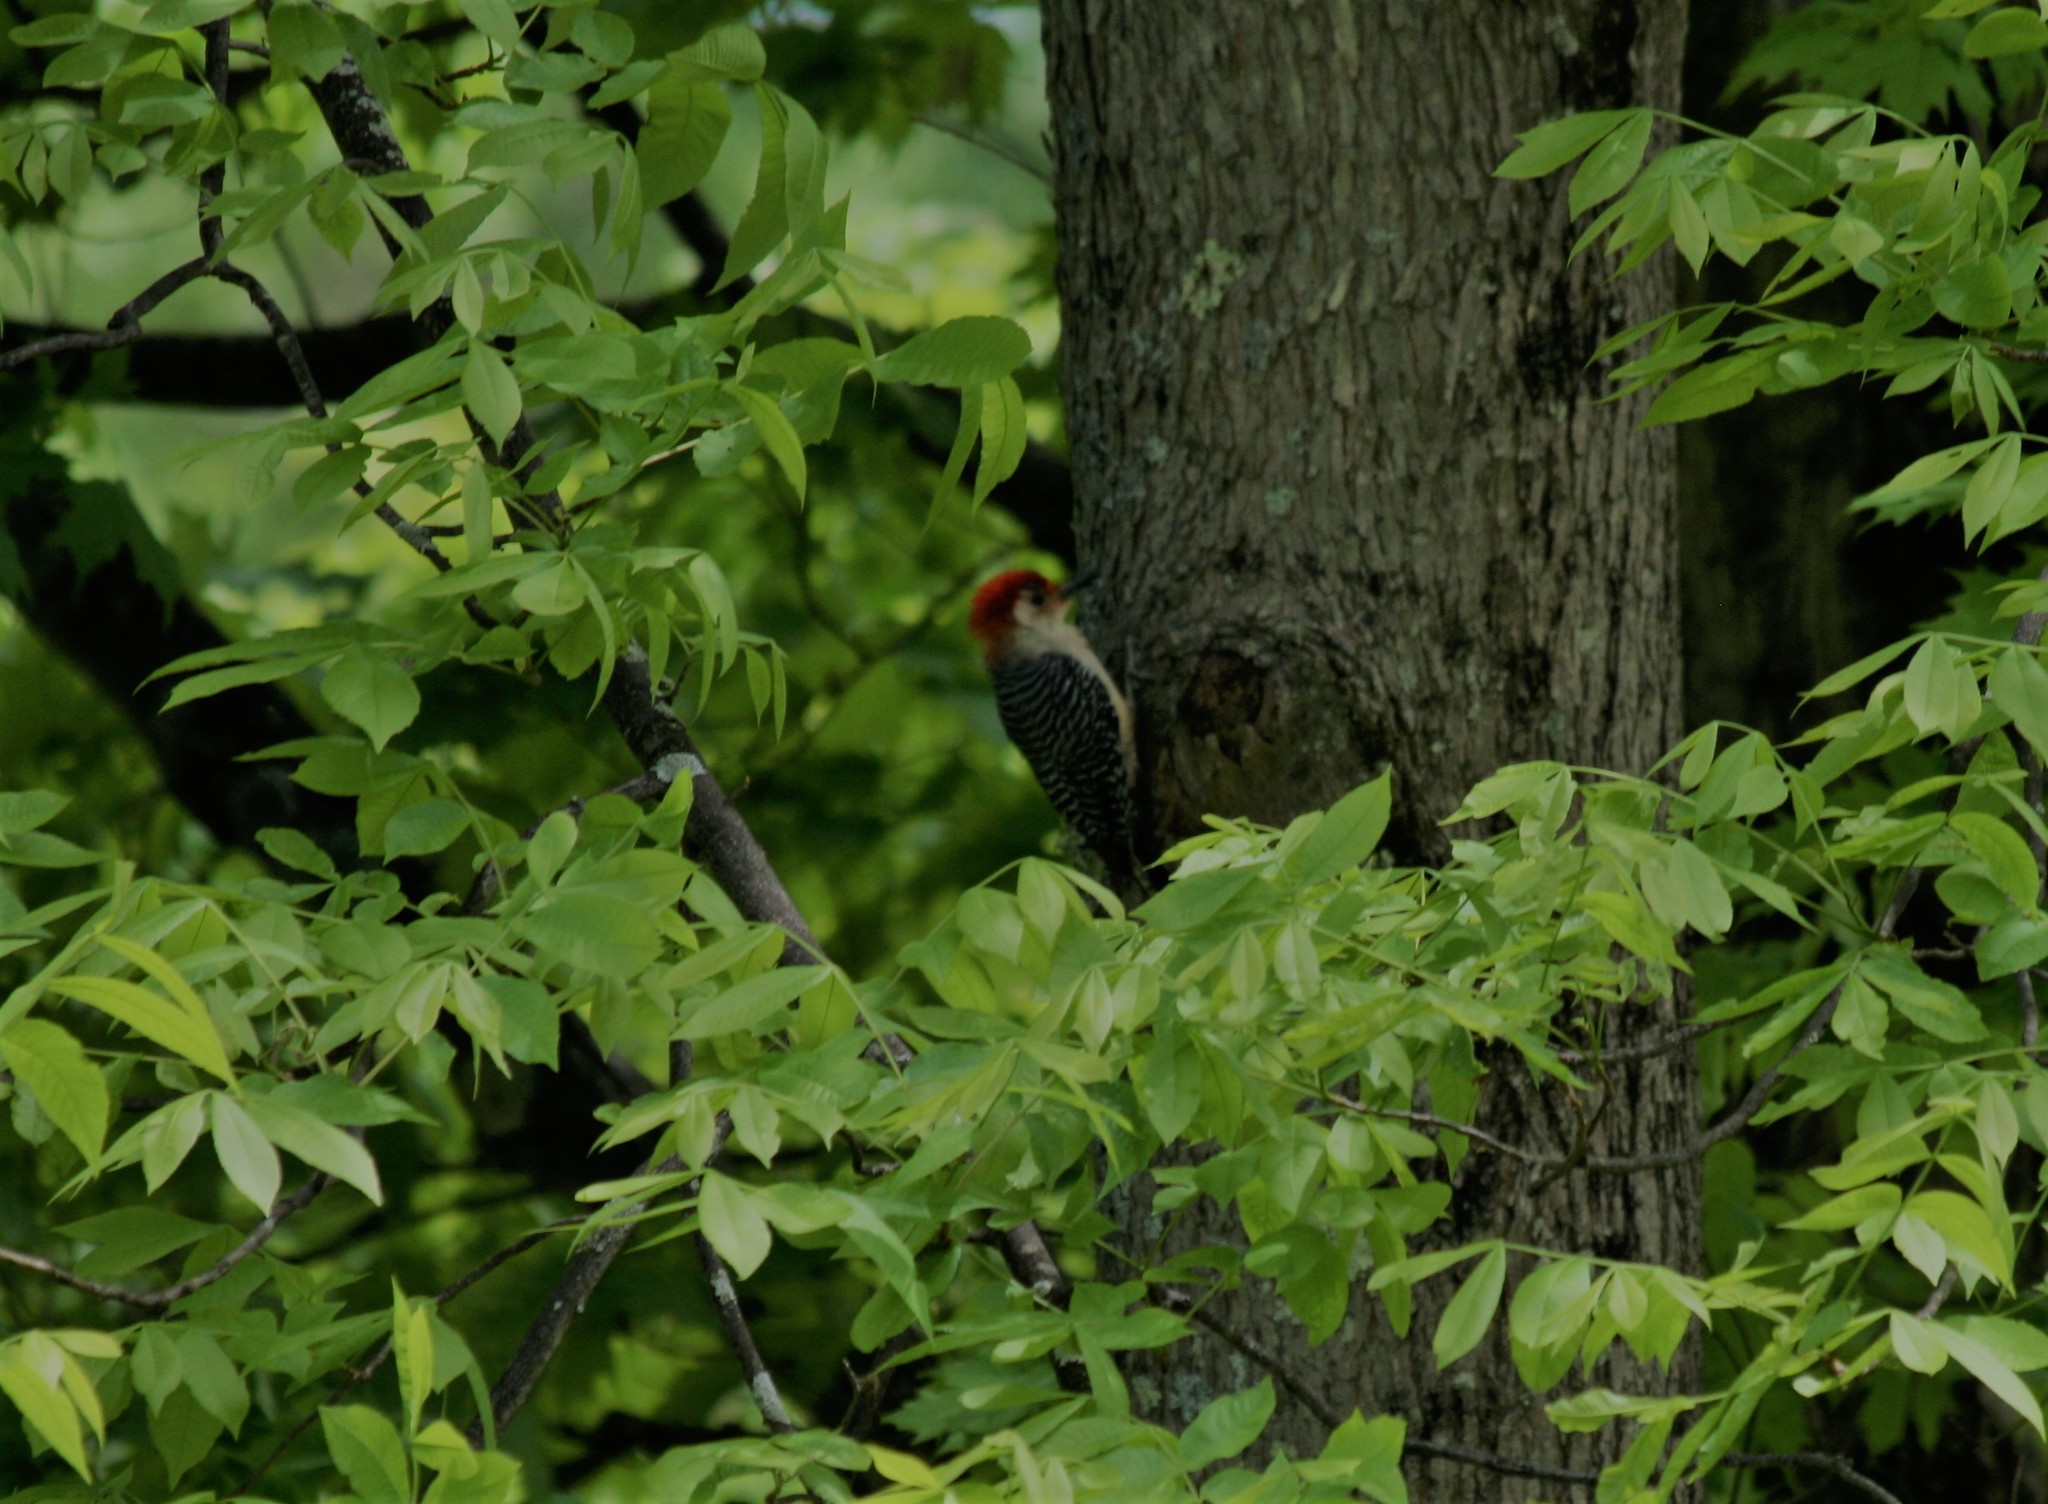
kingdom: Animalia
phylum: Chordata
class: Aves
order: Piciformes
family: Picidae
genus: Melanerpes
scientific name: Melanerpes carolinus
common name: Red-bellied woodpecker
